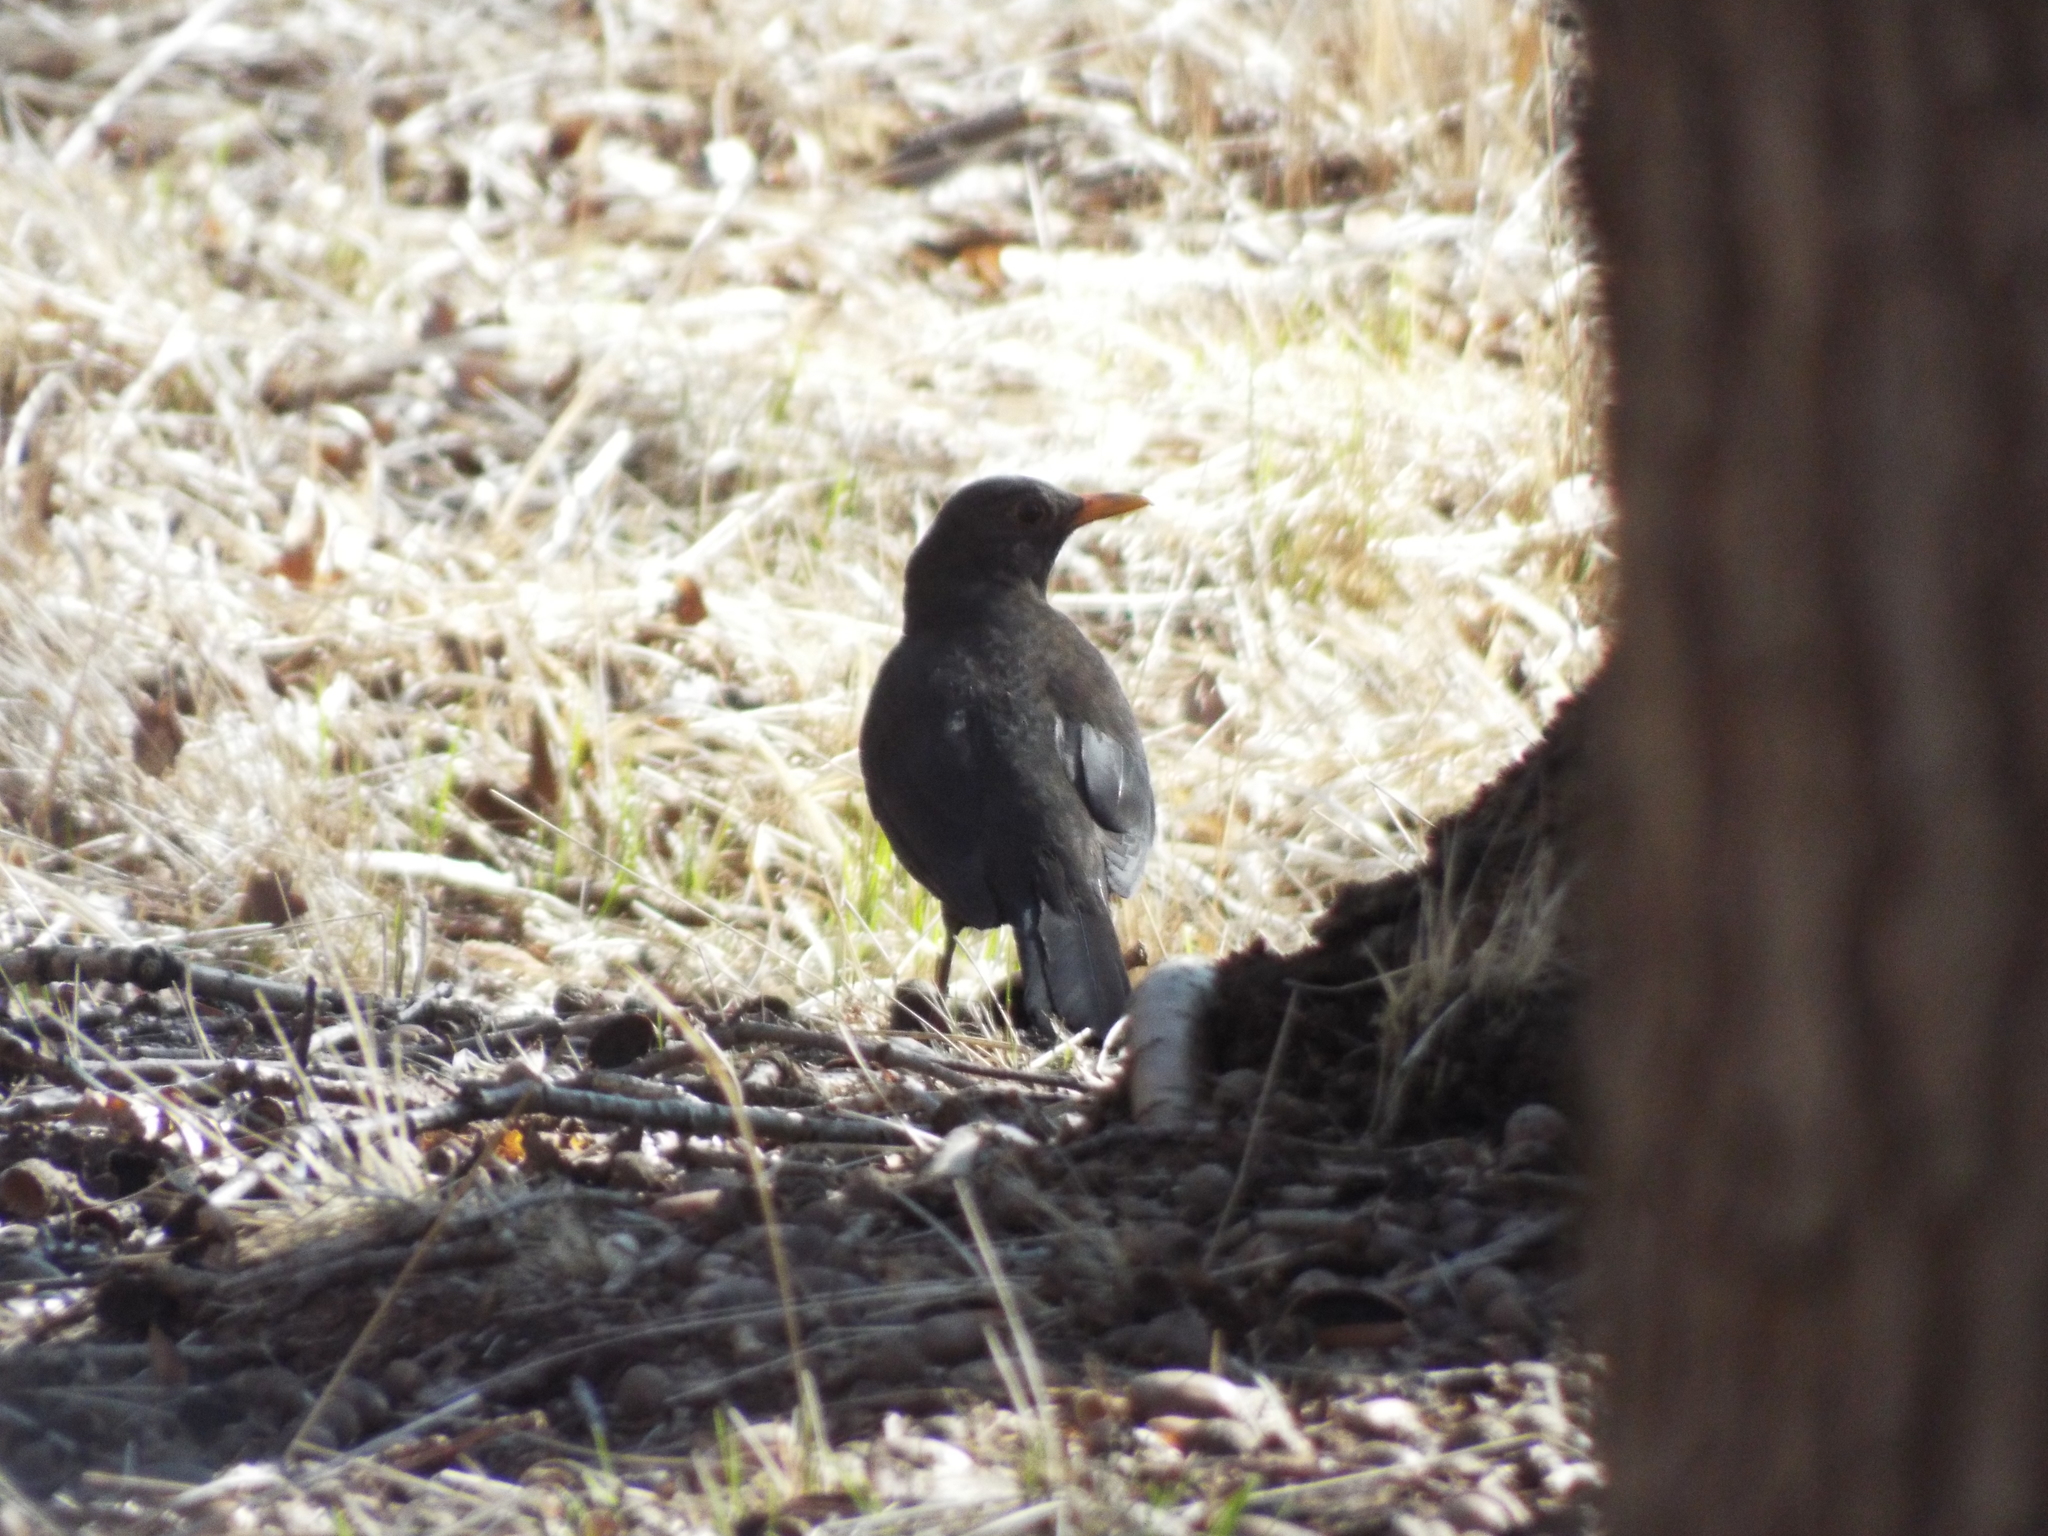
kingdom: Animalia
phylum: Chordata
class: Aves
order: Passeriformes
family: Turdidae
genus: Turdus
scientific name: Turdus merula
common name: Common blackbird
